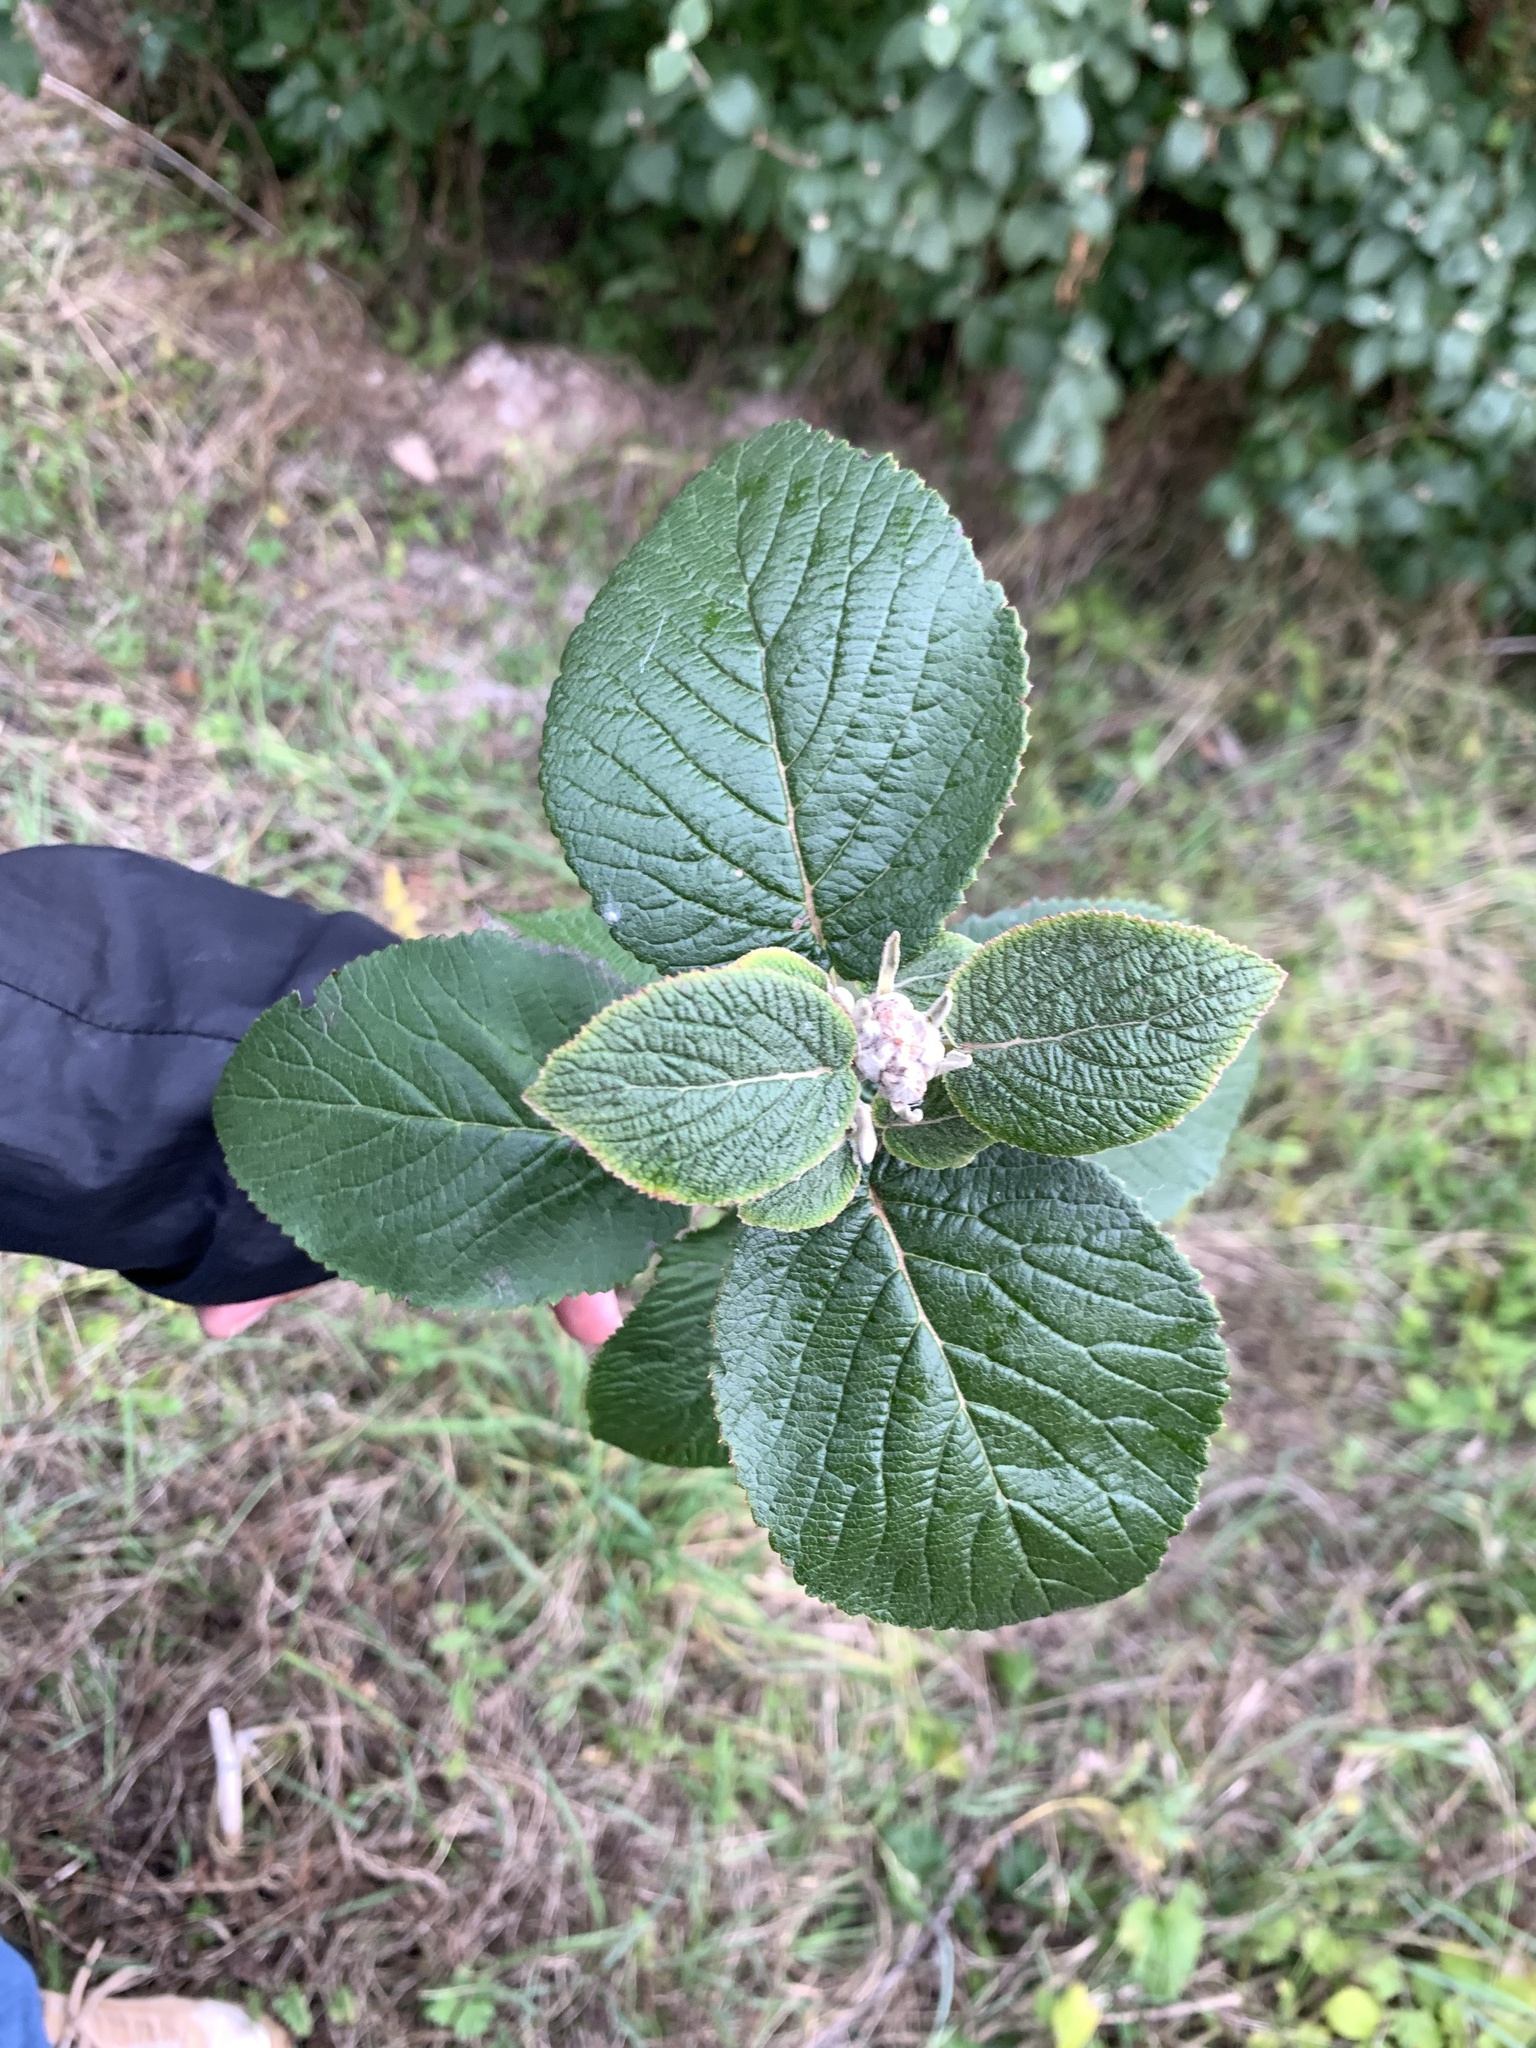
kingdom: Plantae
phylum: Tracheophyta
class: Magnoliopsida
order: Dipsacales
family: Viburnaceae
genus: Viburnum
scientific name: Viburnum lantana
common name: Wayfaring tree
